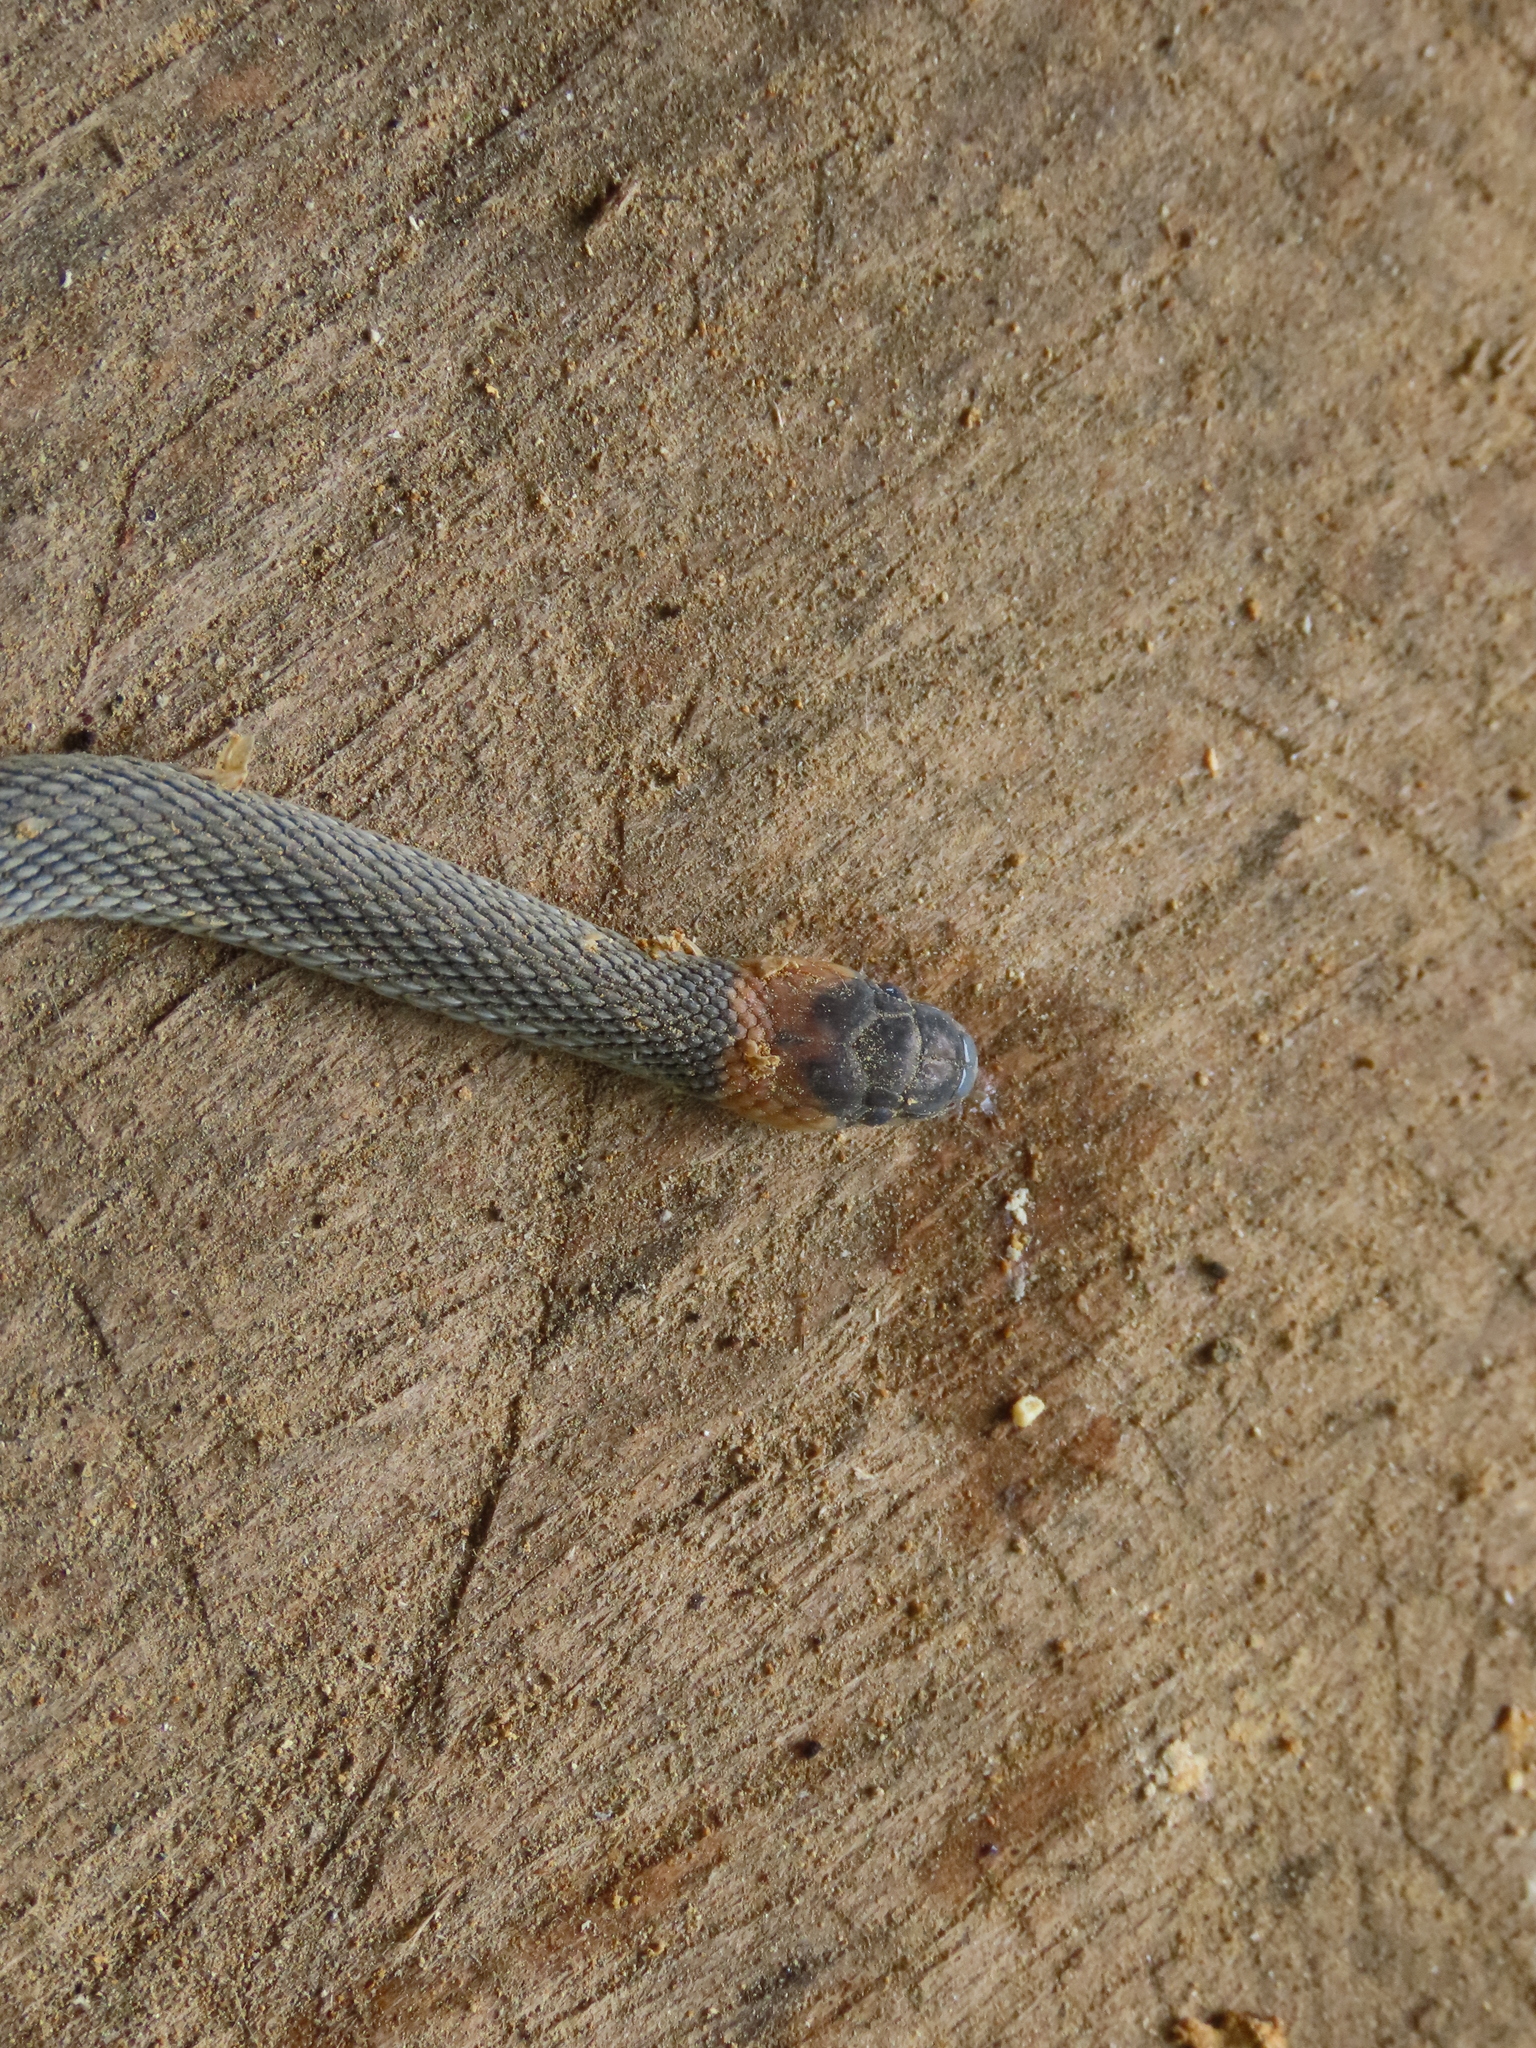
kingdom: Animalia
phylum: Chordata
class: Squamata
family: Colubridae
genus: Ninia
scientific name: Ninia diademata
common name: Ringneck coffee snake
